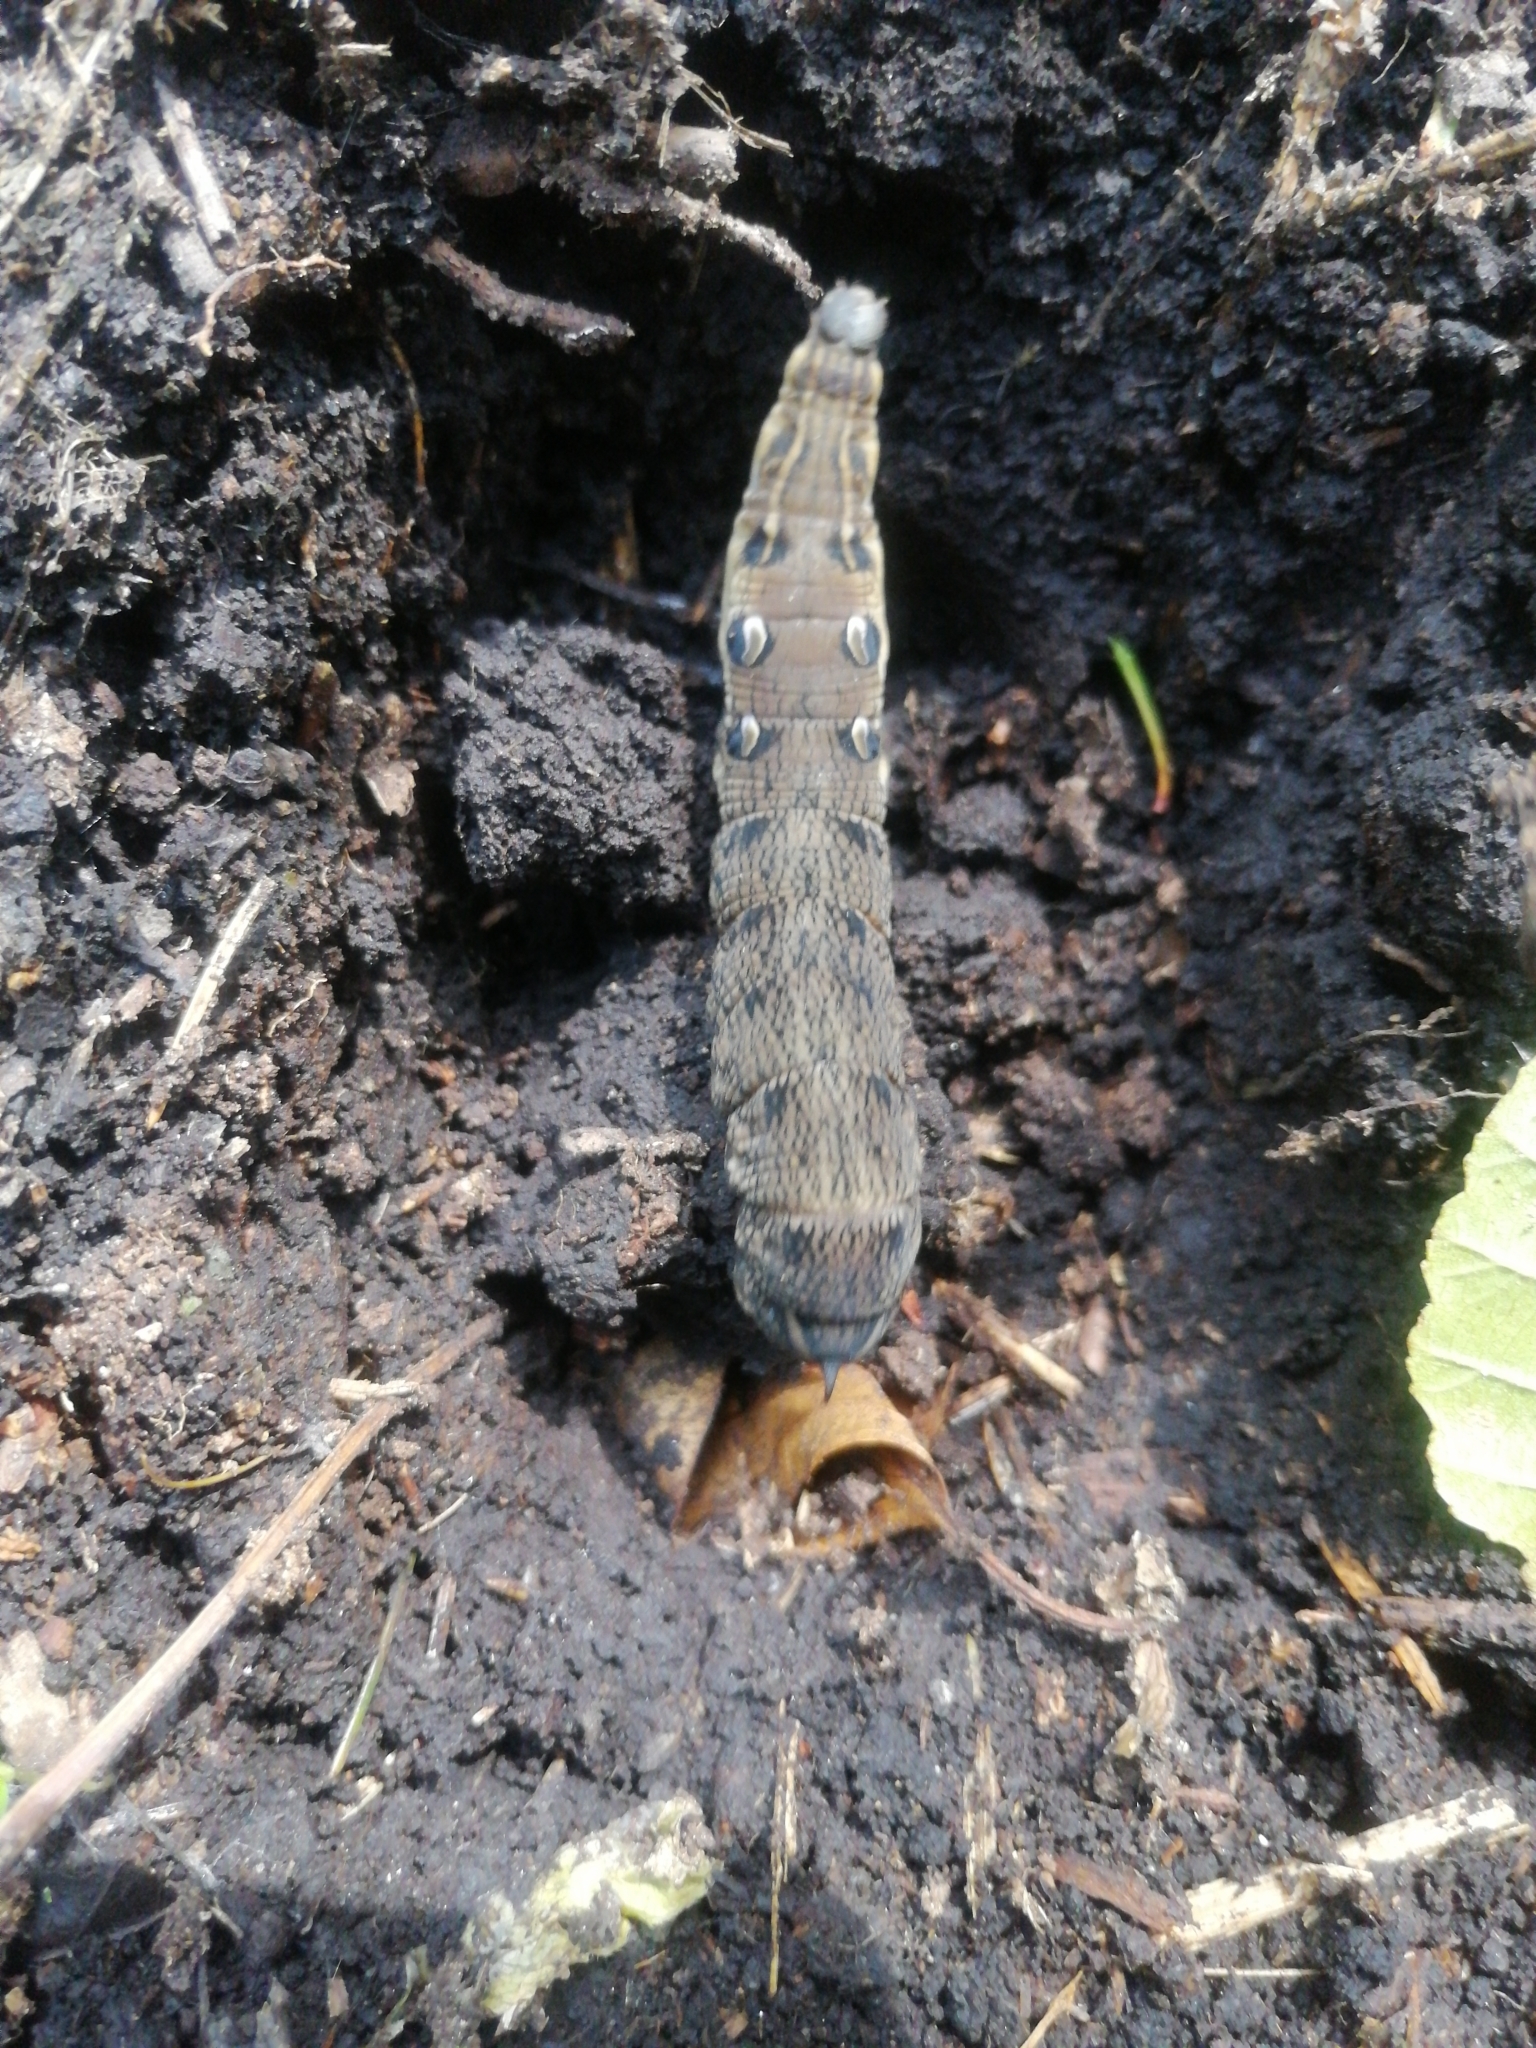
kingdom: Animalia
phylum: Arthropoda
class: Insecta
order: Lepidoptera
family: Sphingidae
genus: Deilephila
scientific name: Deilephila elpenor
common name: Elephant hawk-moth
